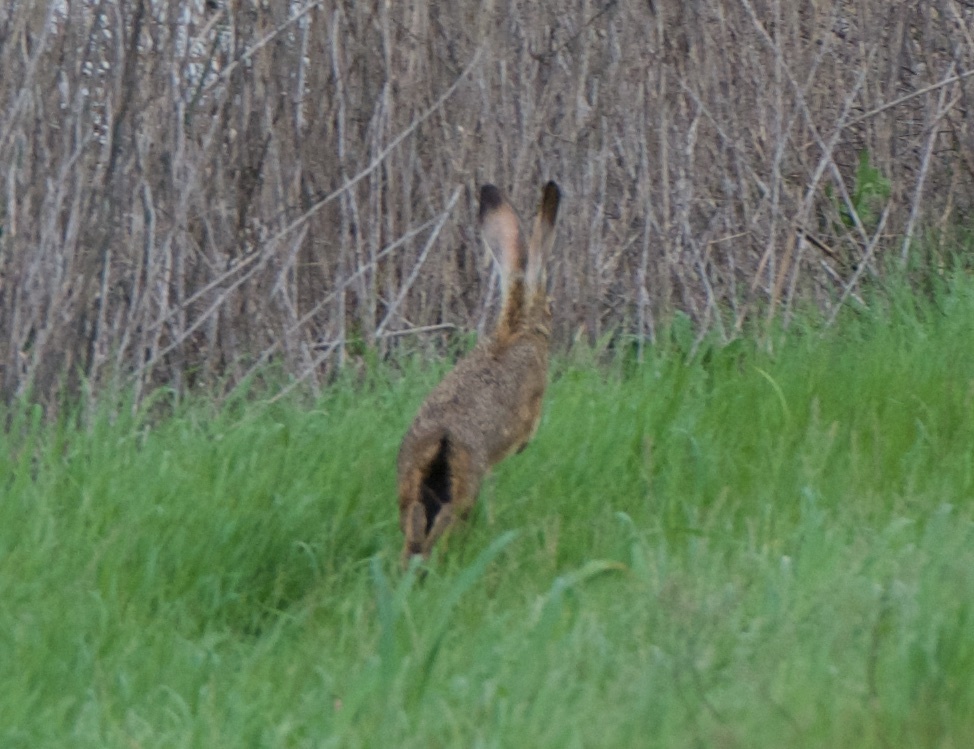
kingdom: Animalia
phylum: Chordata
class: Mammalia
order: Lagomorpha
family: Leporidae
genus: Lepus
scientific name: Lepus californicus
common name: Black-tailed jackrabbit
